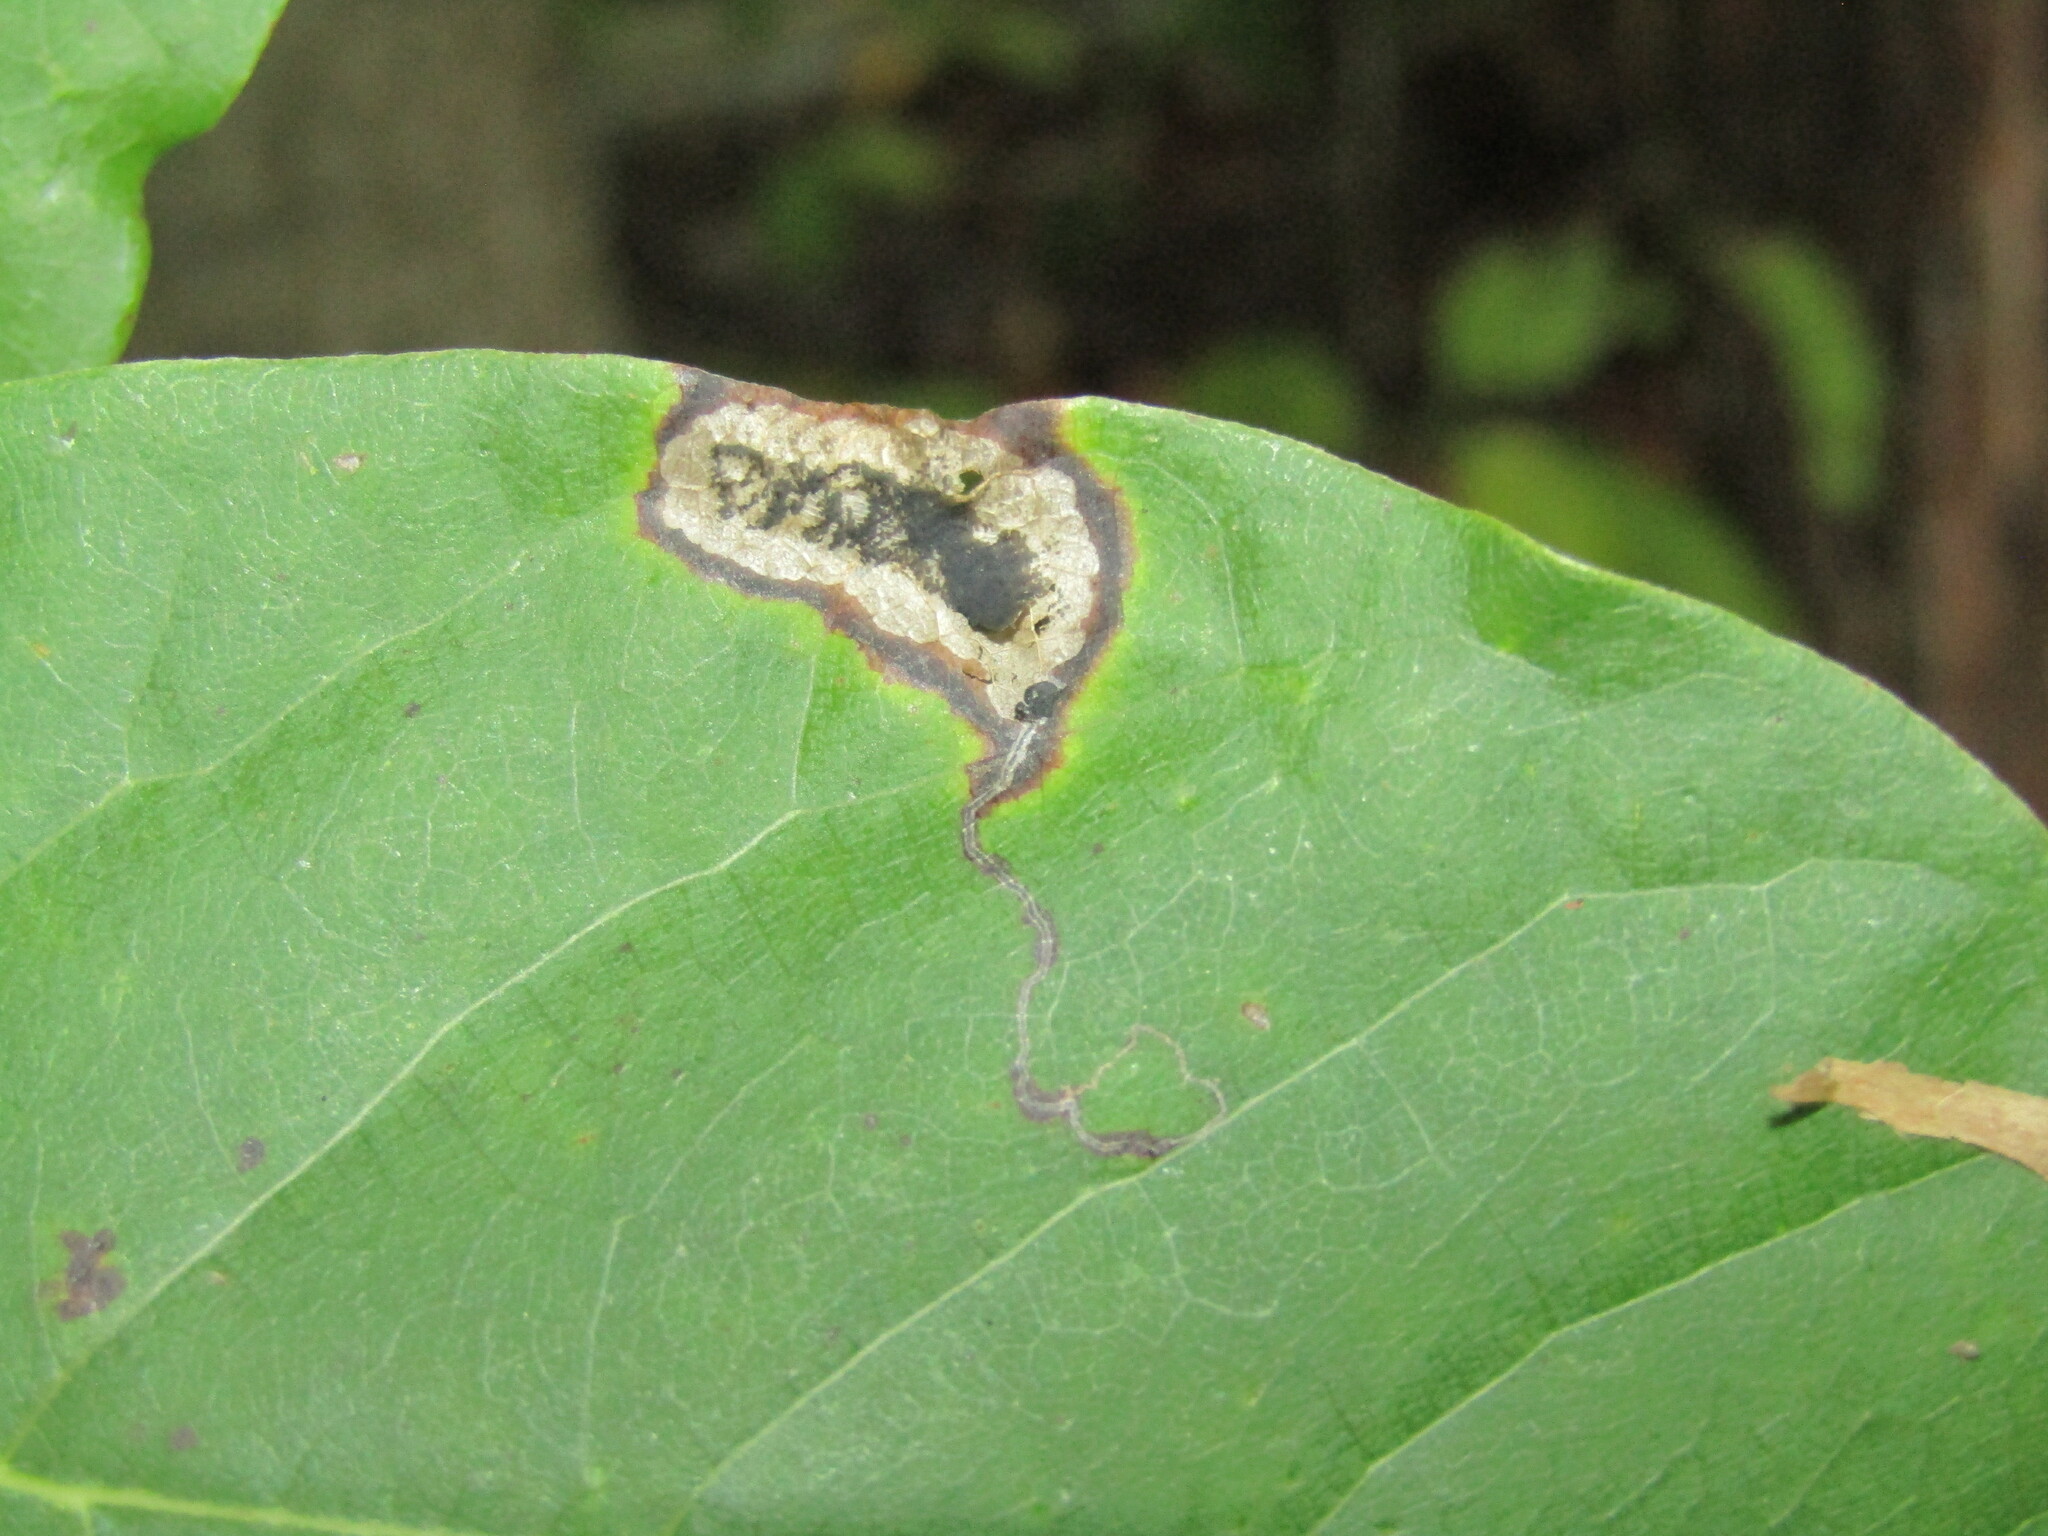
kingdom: Animalia
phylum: Arthropoda
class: Insecta
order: Lepidoptera
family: Nepticulidae
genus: Ectoedemia
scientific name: Ectoedemia nyssaefoliella
